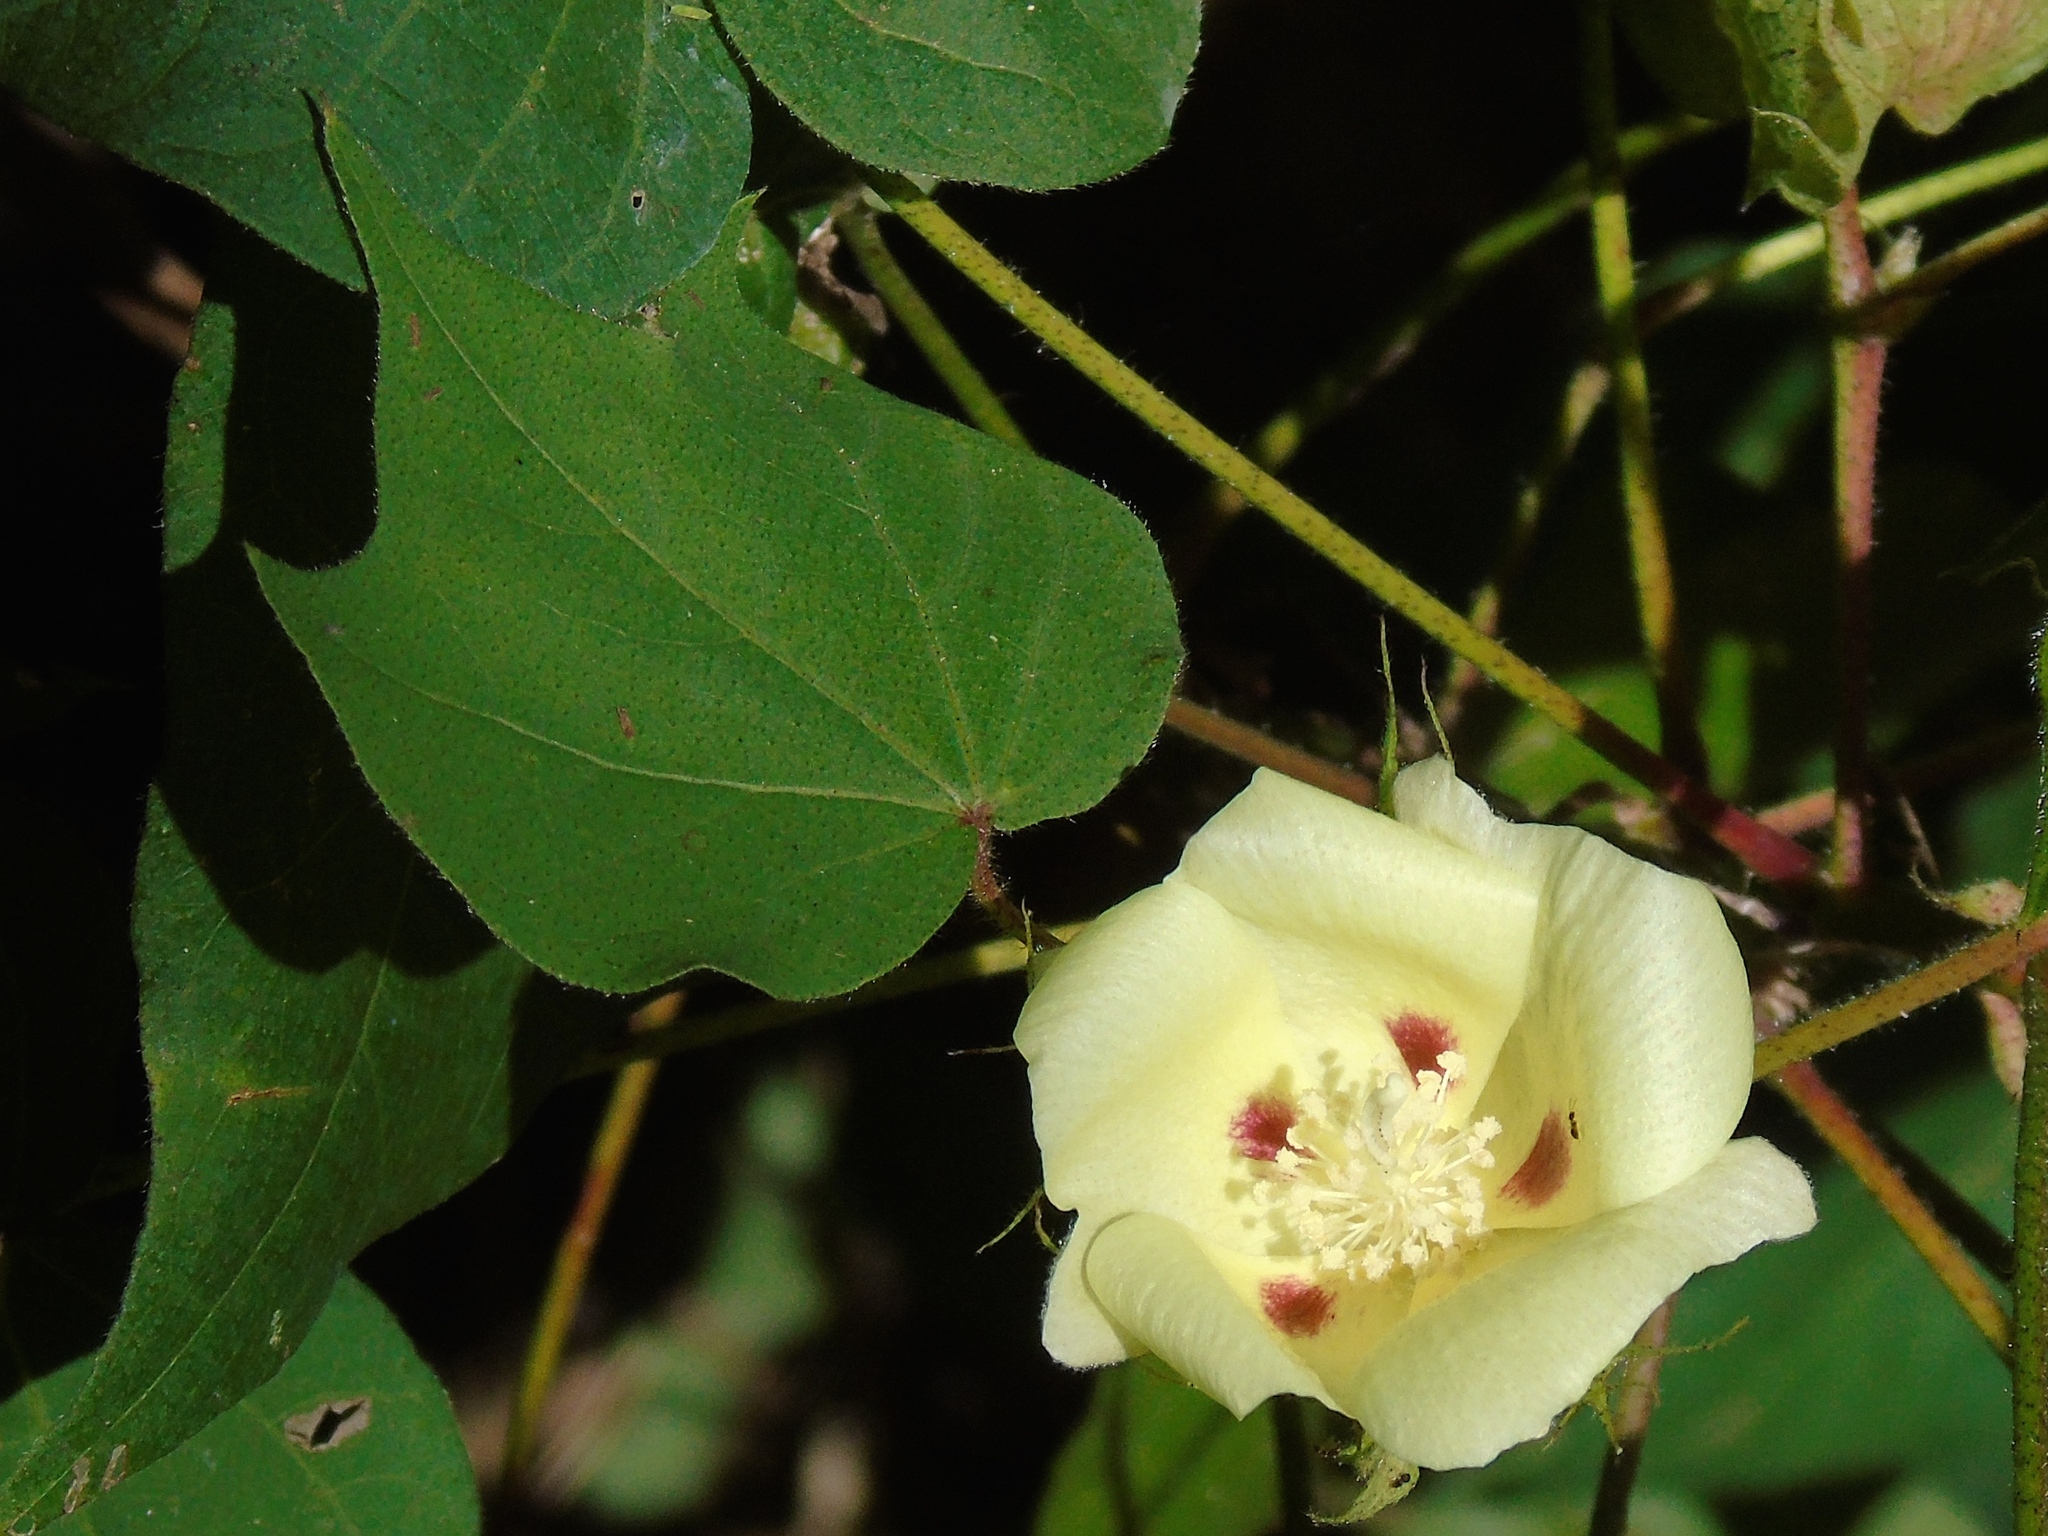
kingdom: Plantae
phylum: Tracheophyta
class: Magnoliopsida
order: Malvales
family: Malvaceae
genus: Gossypium
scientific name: Gossypium hirsutum
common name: Cotton
